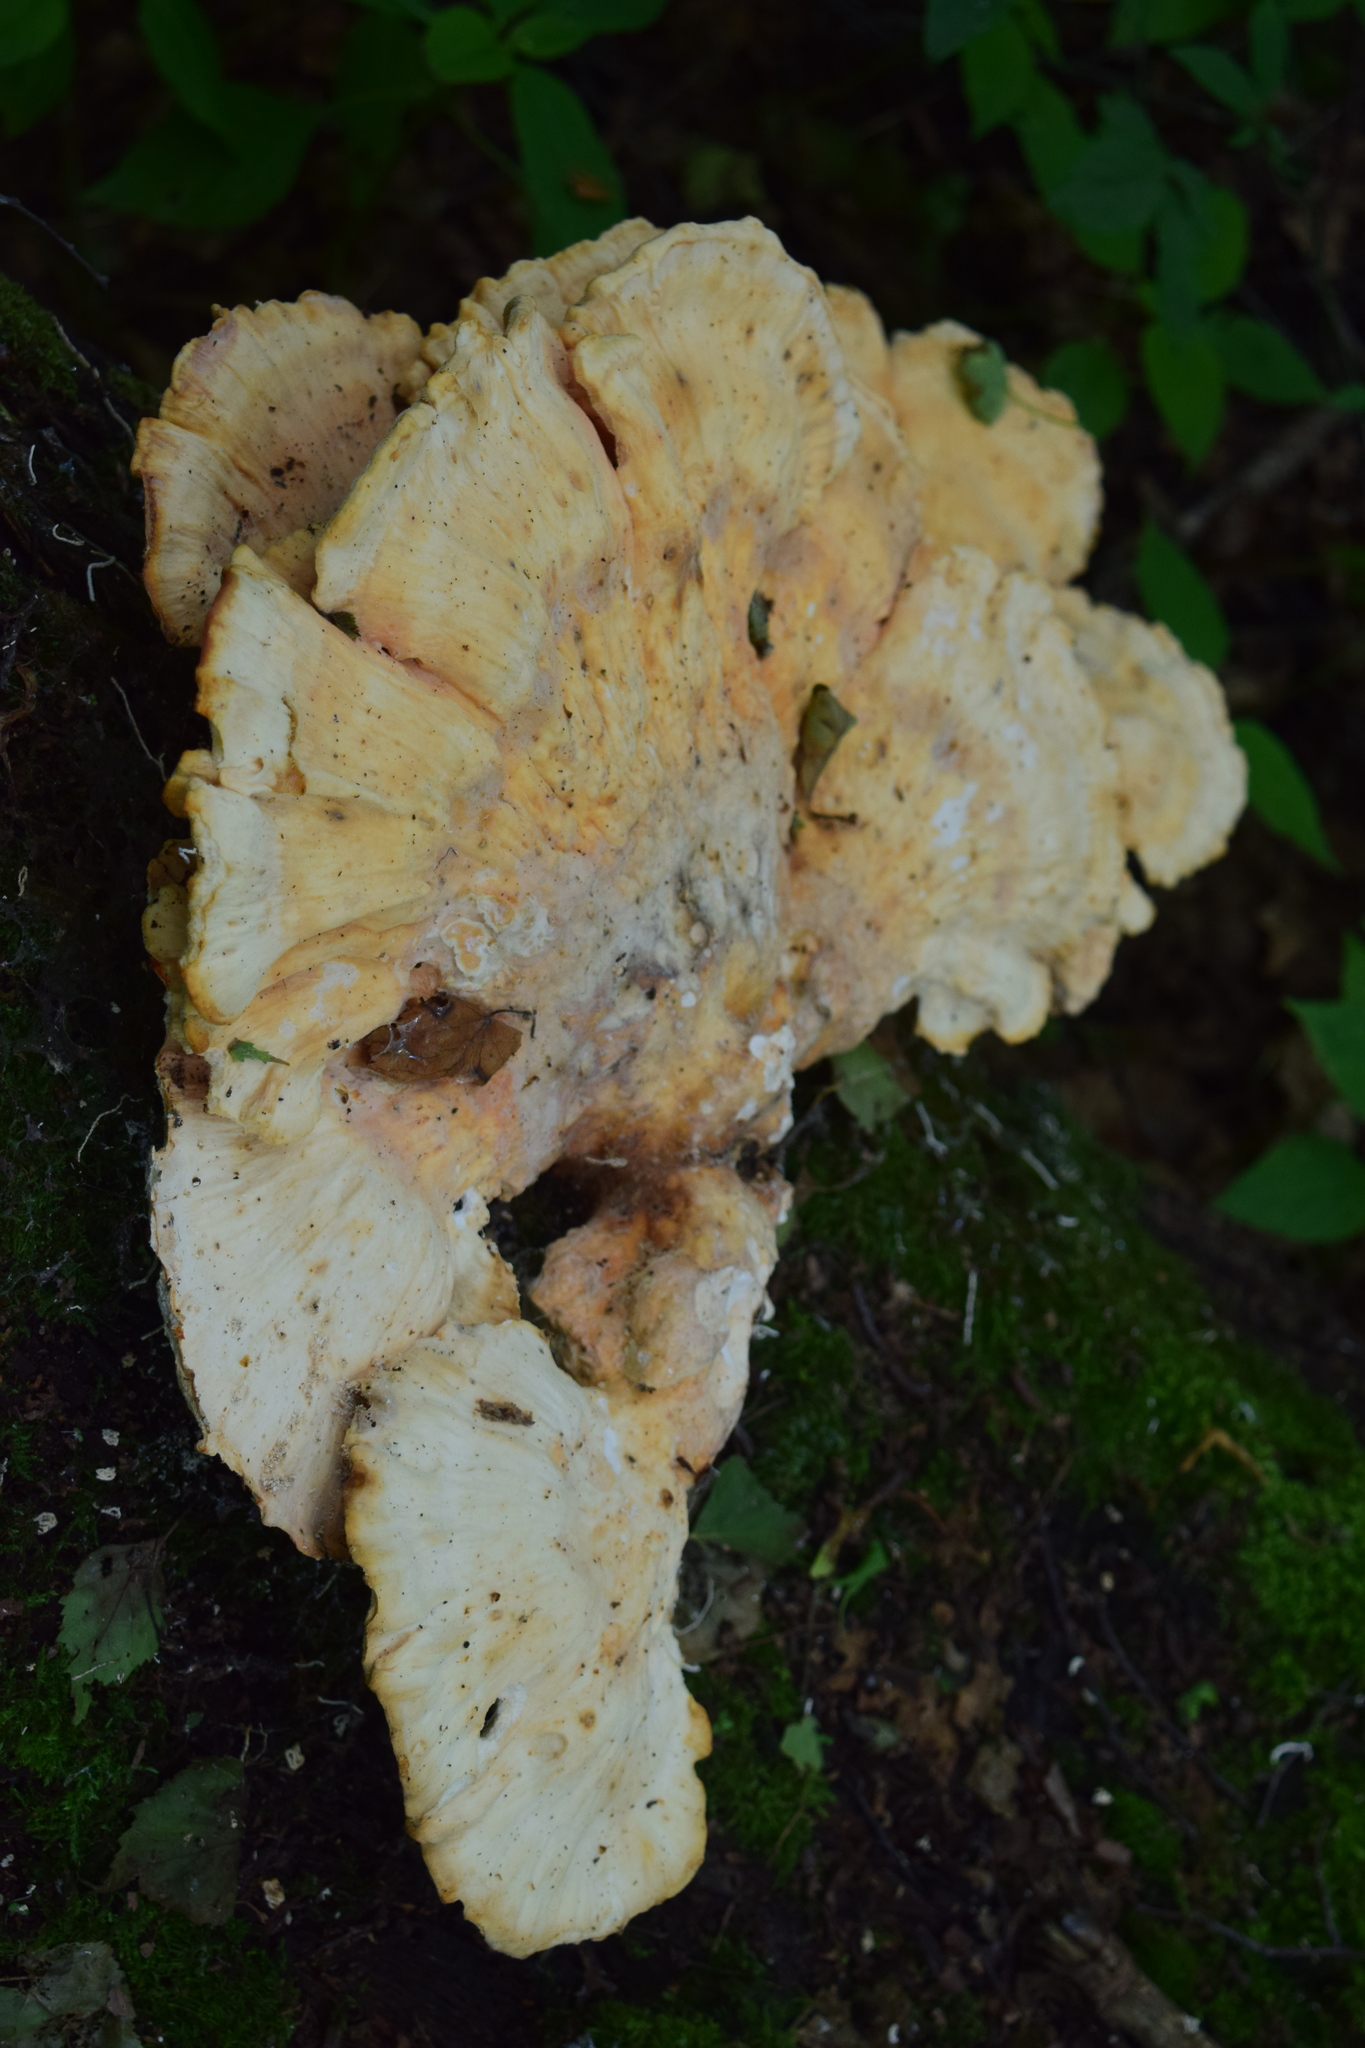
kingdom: Fungi
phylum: Basidiomycota
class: Agaricomycetes
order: Polyporales
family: Laetiporaceae
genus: Laetiporus
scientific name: Laetiporus sulphureus
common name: Chicken of the woods
